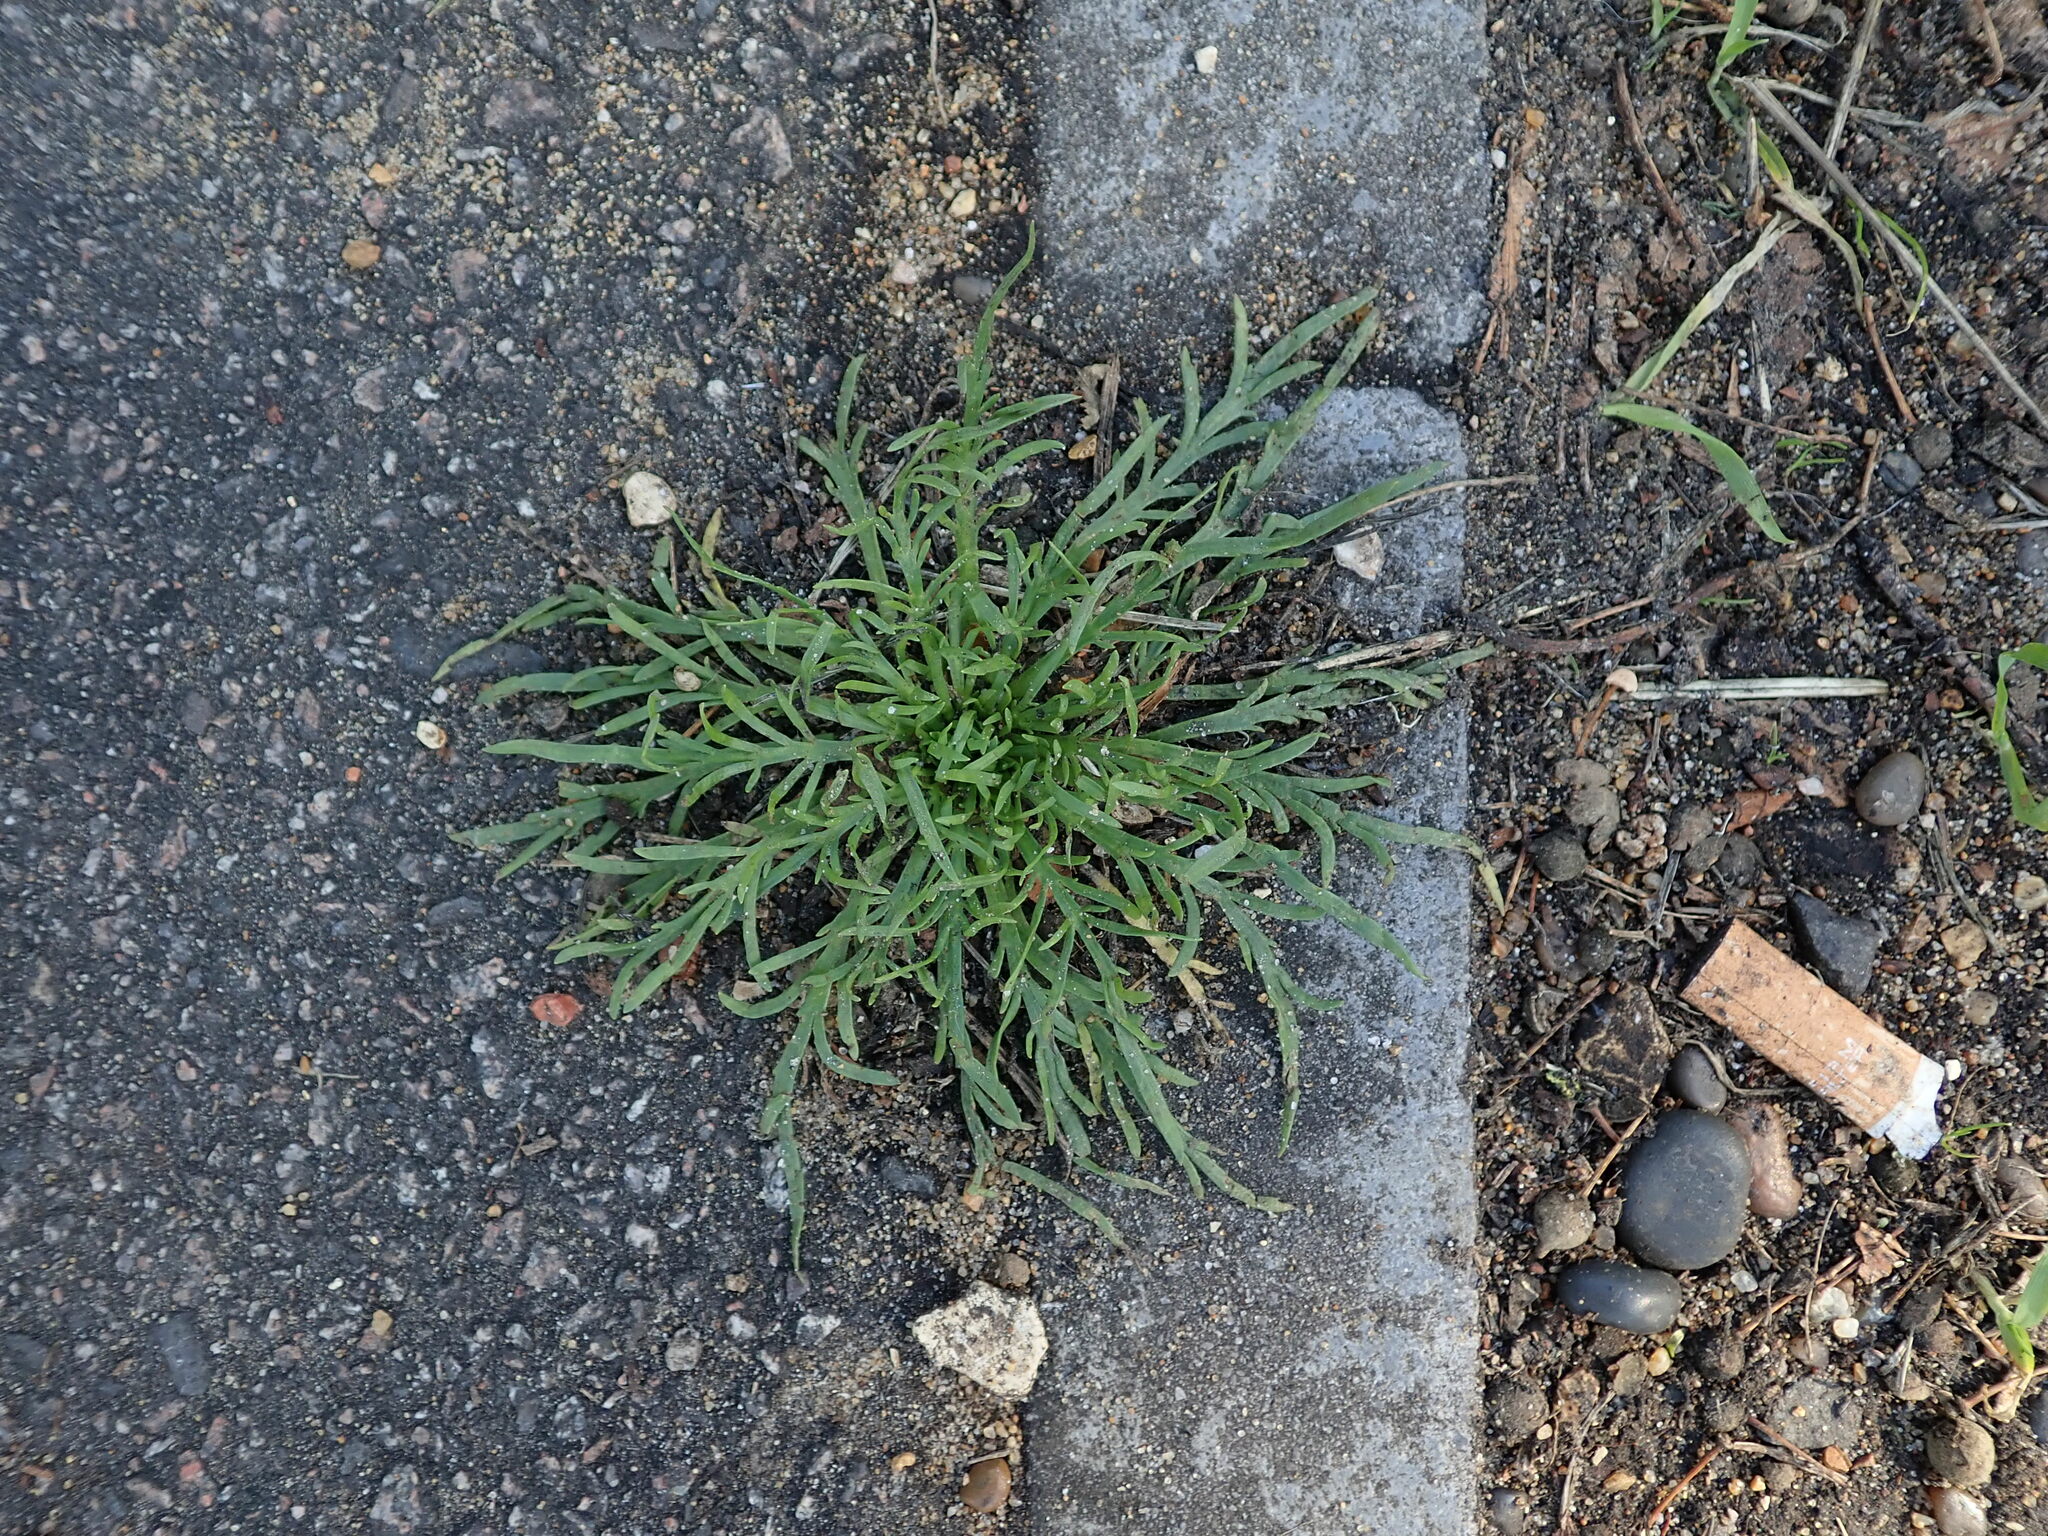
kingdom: Plantae
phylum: Tracheophyta
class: Magnoliopsida
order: Lamiales
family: Plantaginaceae
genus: Plantago
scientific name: Plantago coronopus
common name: Buck's-horn plantain
